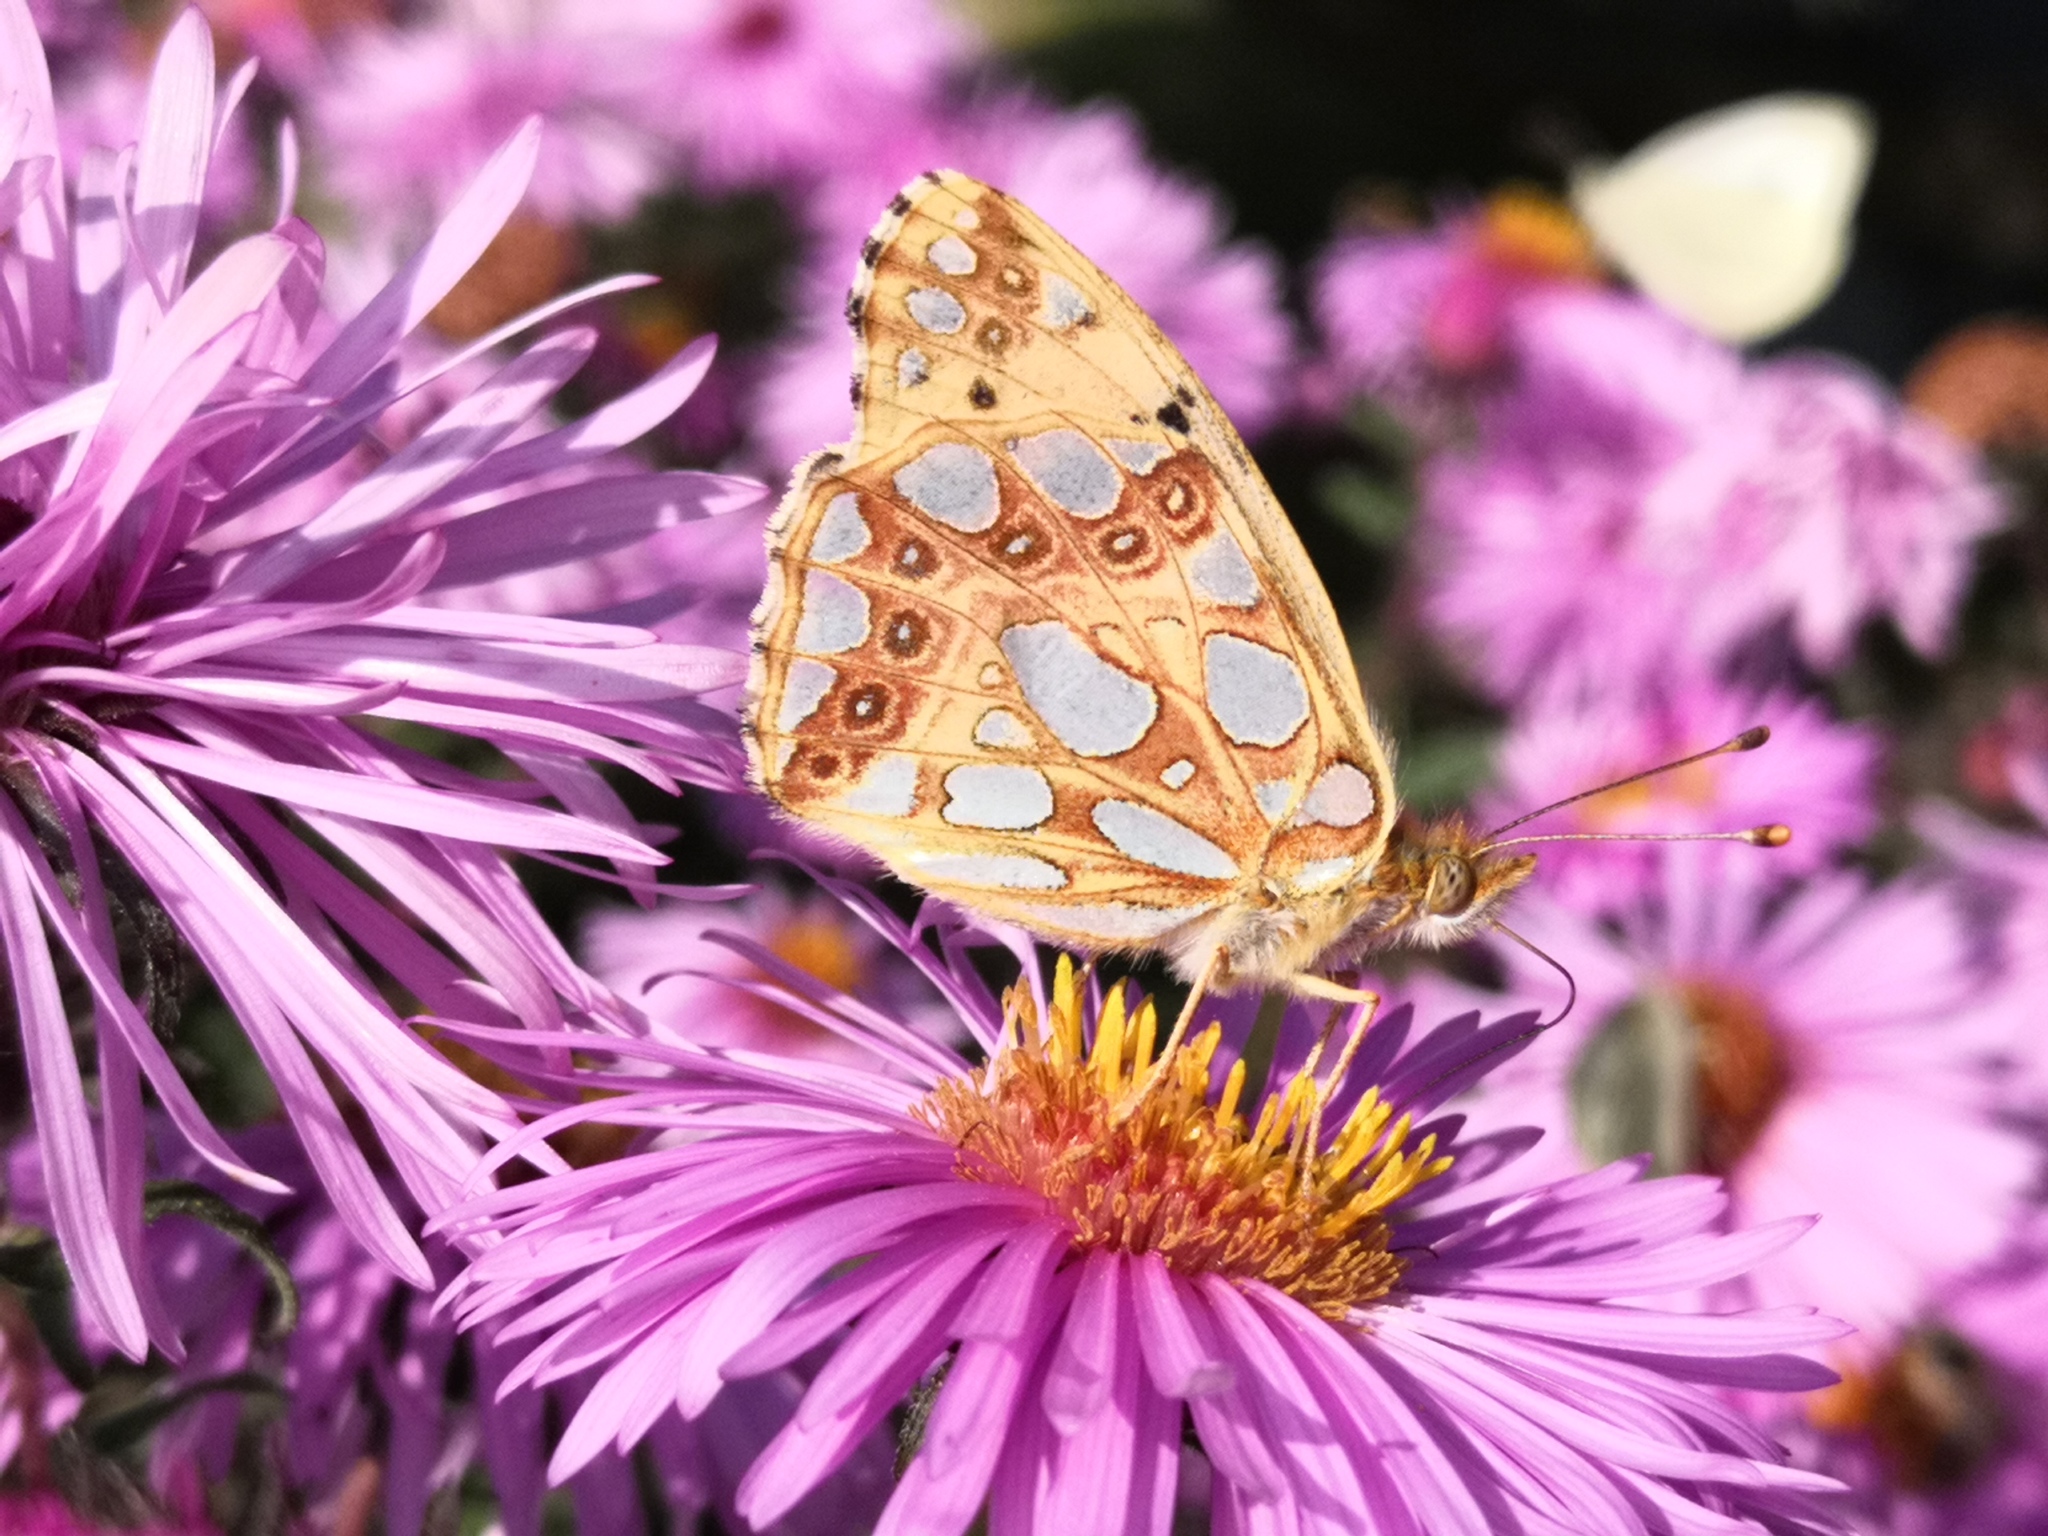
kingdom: Animalia
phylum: Arthropoda
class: Insecta
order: Lepidoptera
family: Nymphalidae
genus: Issoria
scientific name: Issoria lathonia
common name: Queen of spain fritillary
